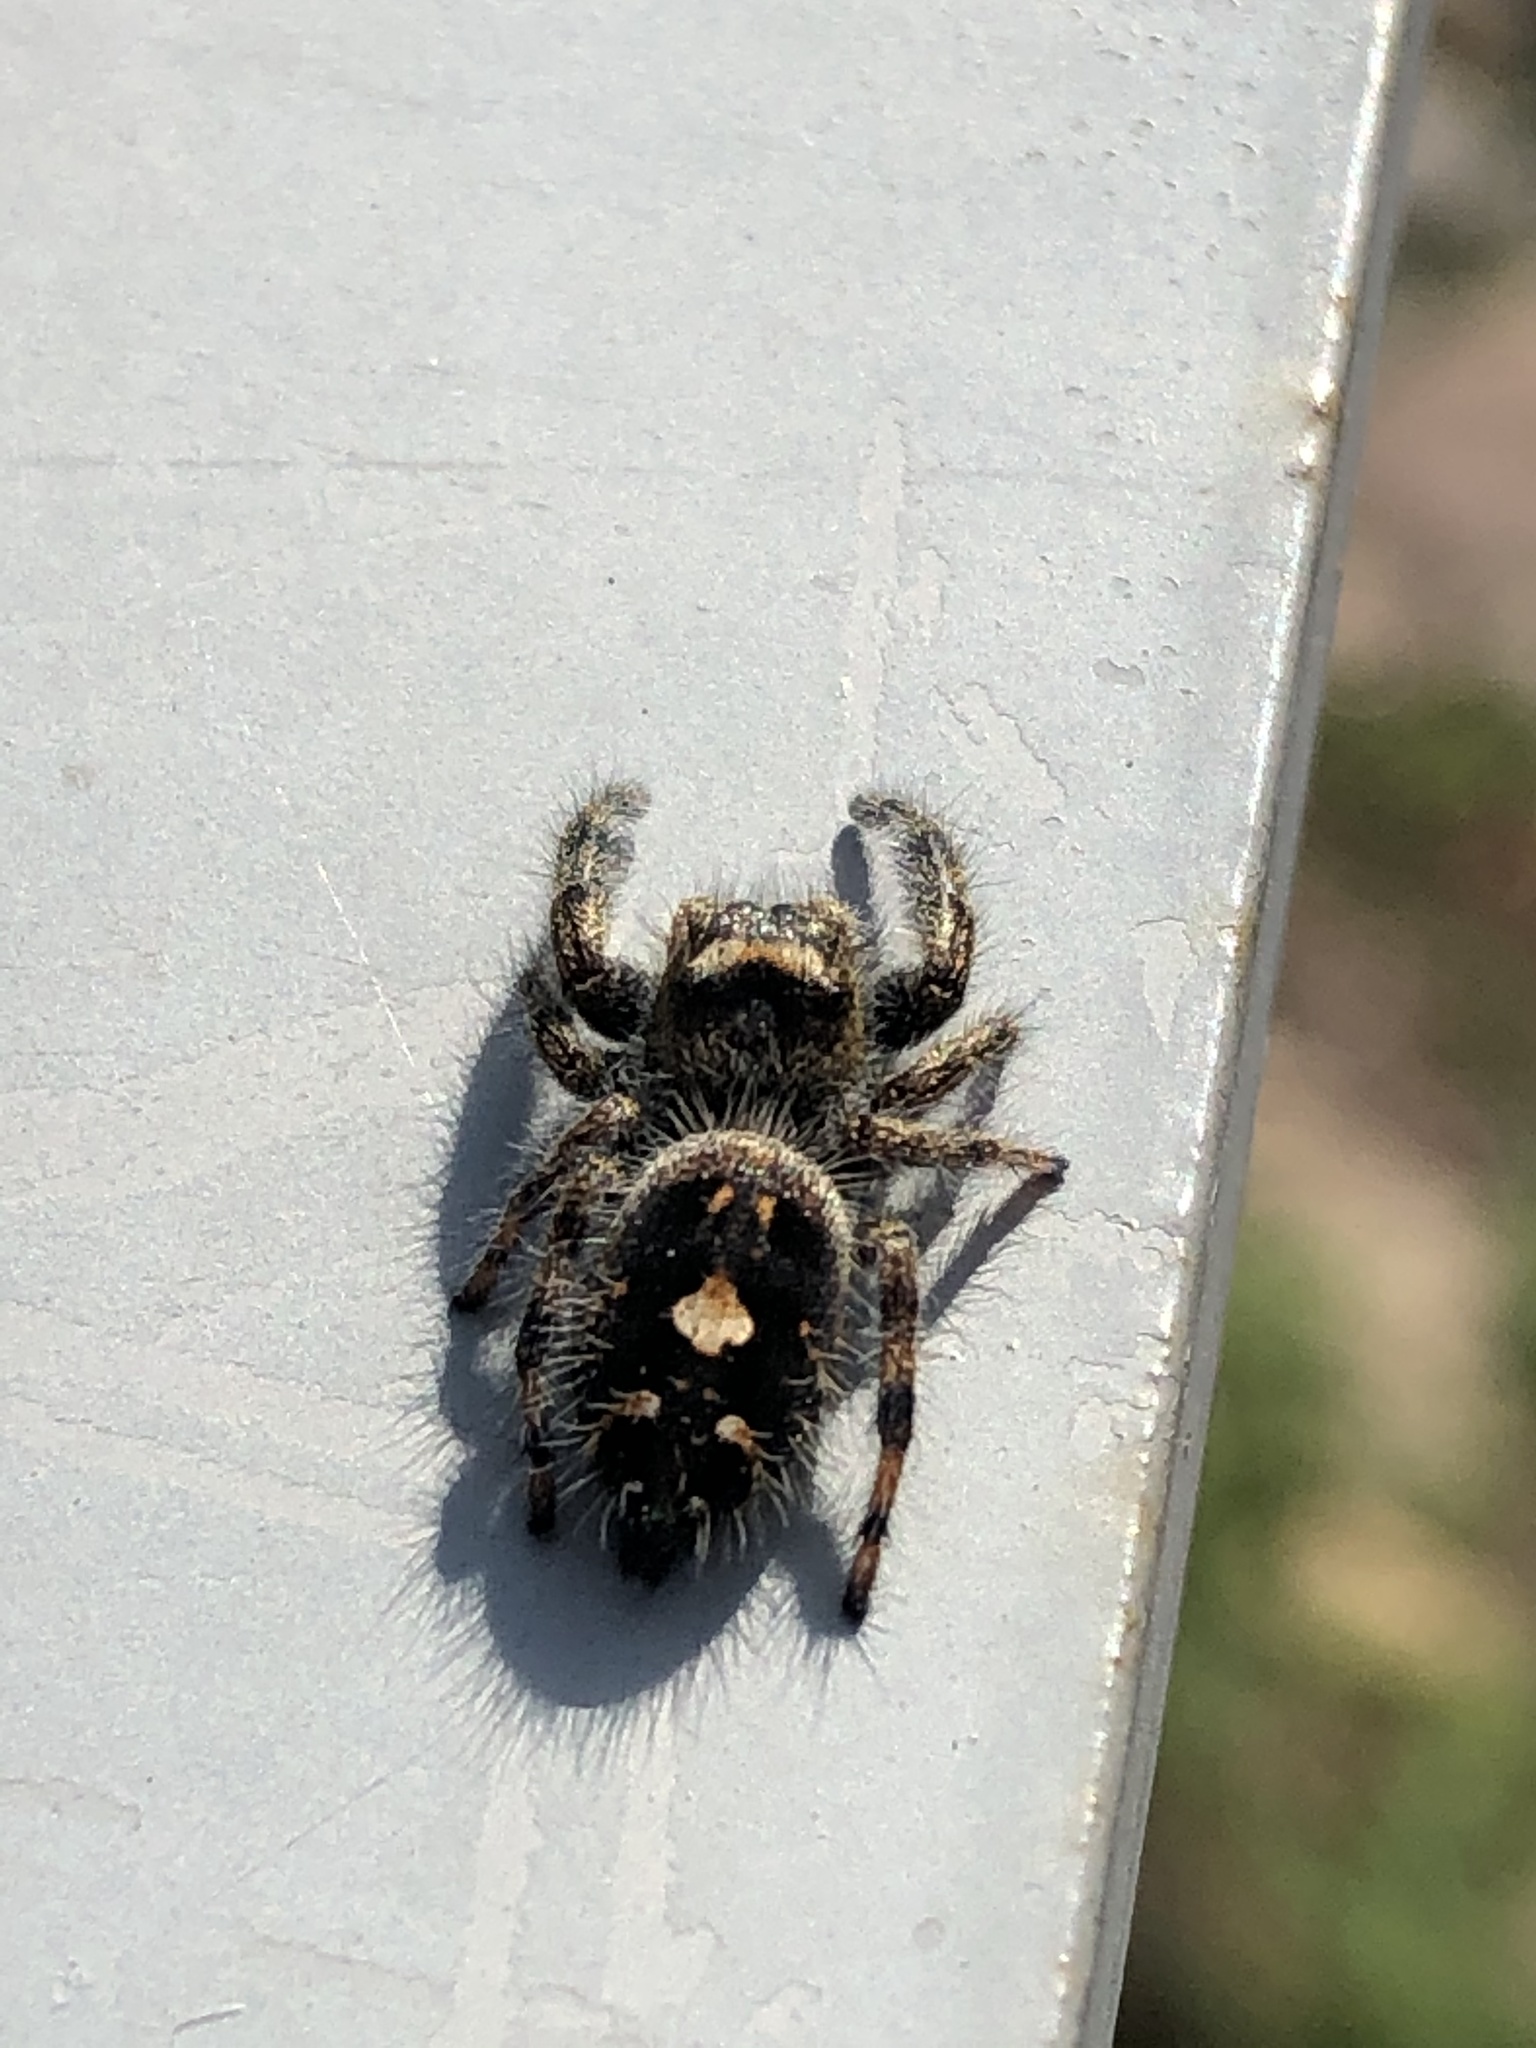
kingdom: Animalia
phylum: Arthropoda
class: Arachnida
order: Araneae
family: Salticidae
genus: Phidippus
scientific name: Phidippus audax
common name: Bold jumper
